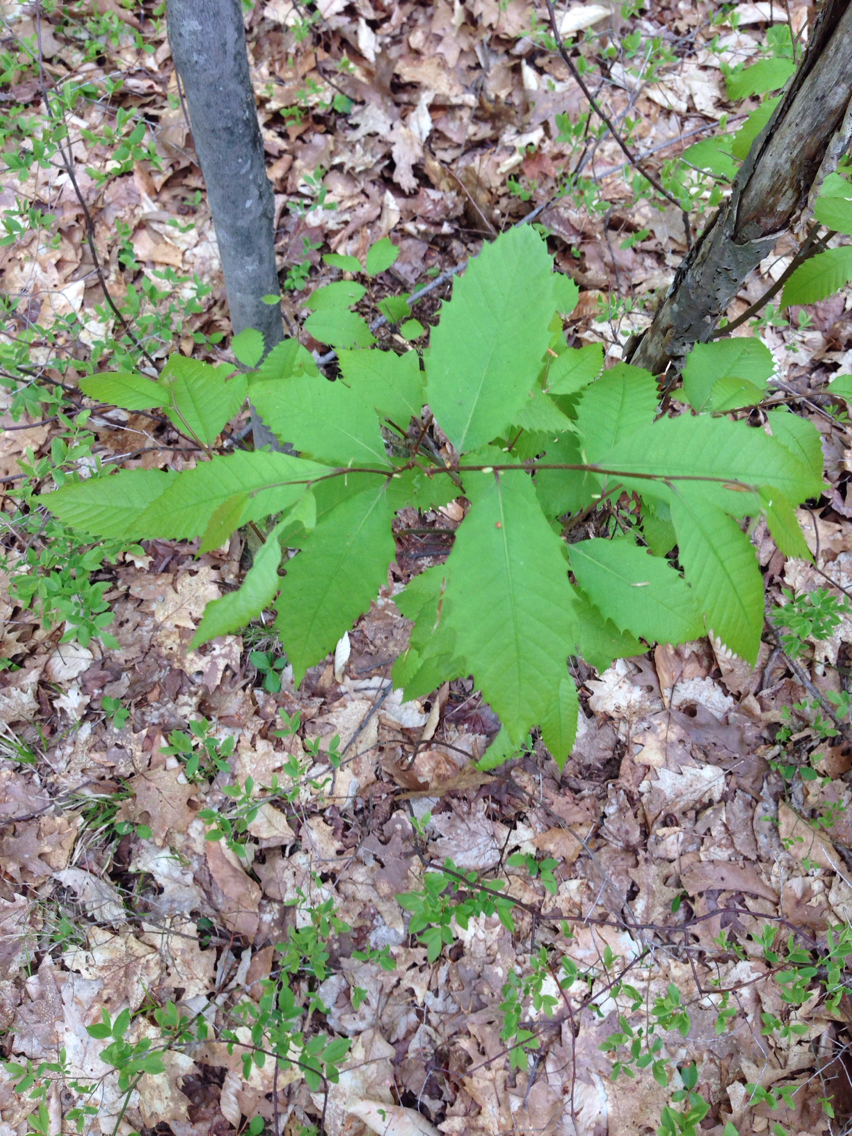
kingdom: Plantae
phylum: Tracheophyta
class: Magnoliopsida
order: Fagales
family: Fagaceae
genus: Castanea
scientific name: Castanea dentata
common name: American chestnut
